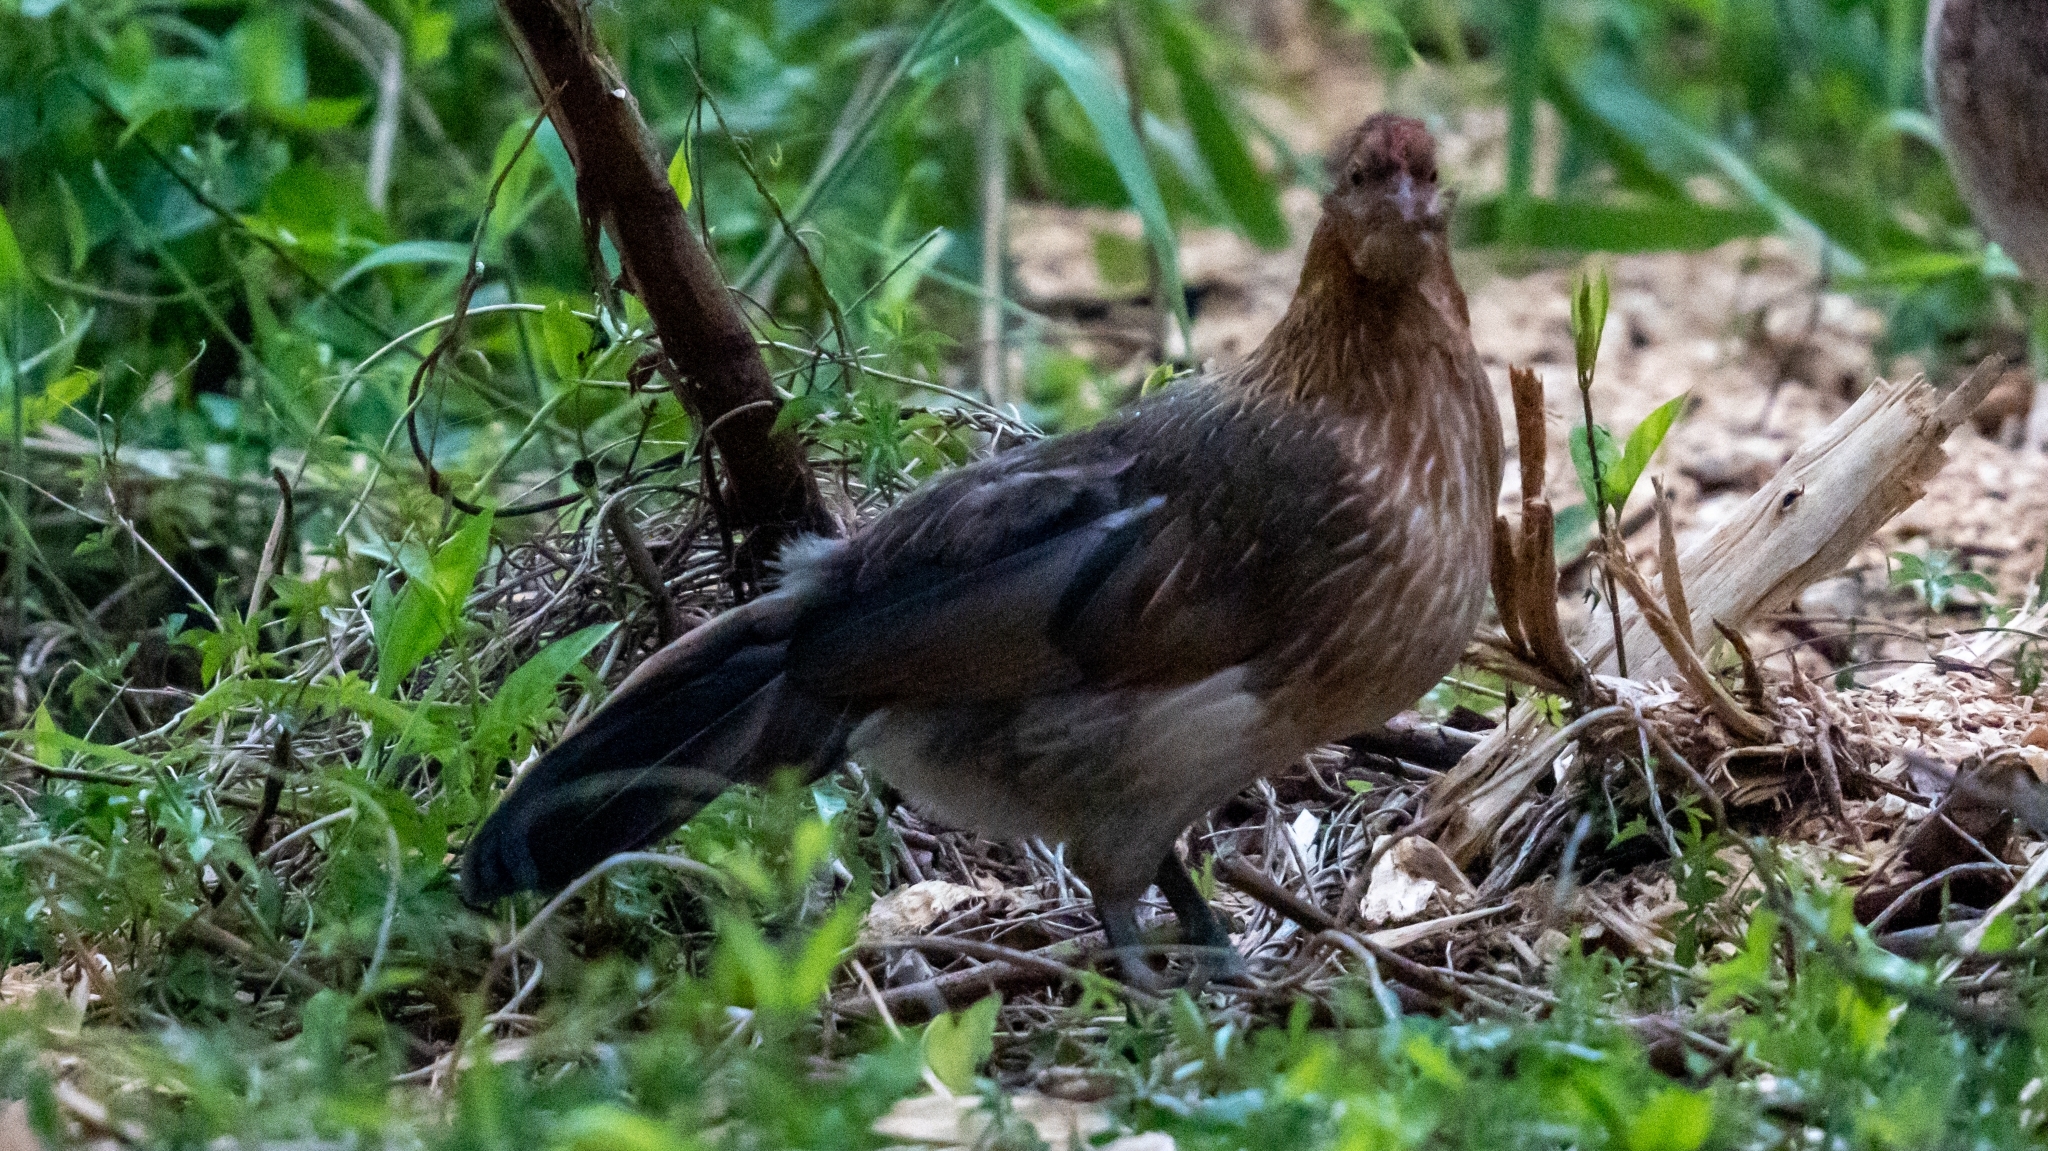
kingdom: Animalia
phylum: Chordata
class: Aves
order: Galliformes
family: Phasianidae
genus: Gallus
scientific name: Gallus gallus
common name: Red junglefowl
